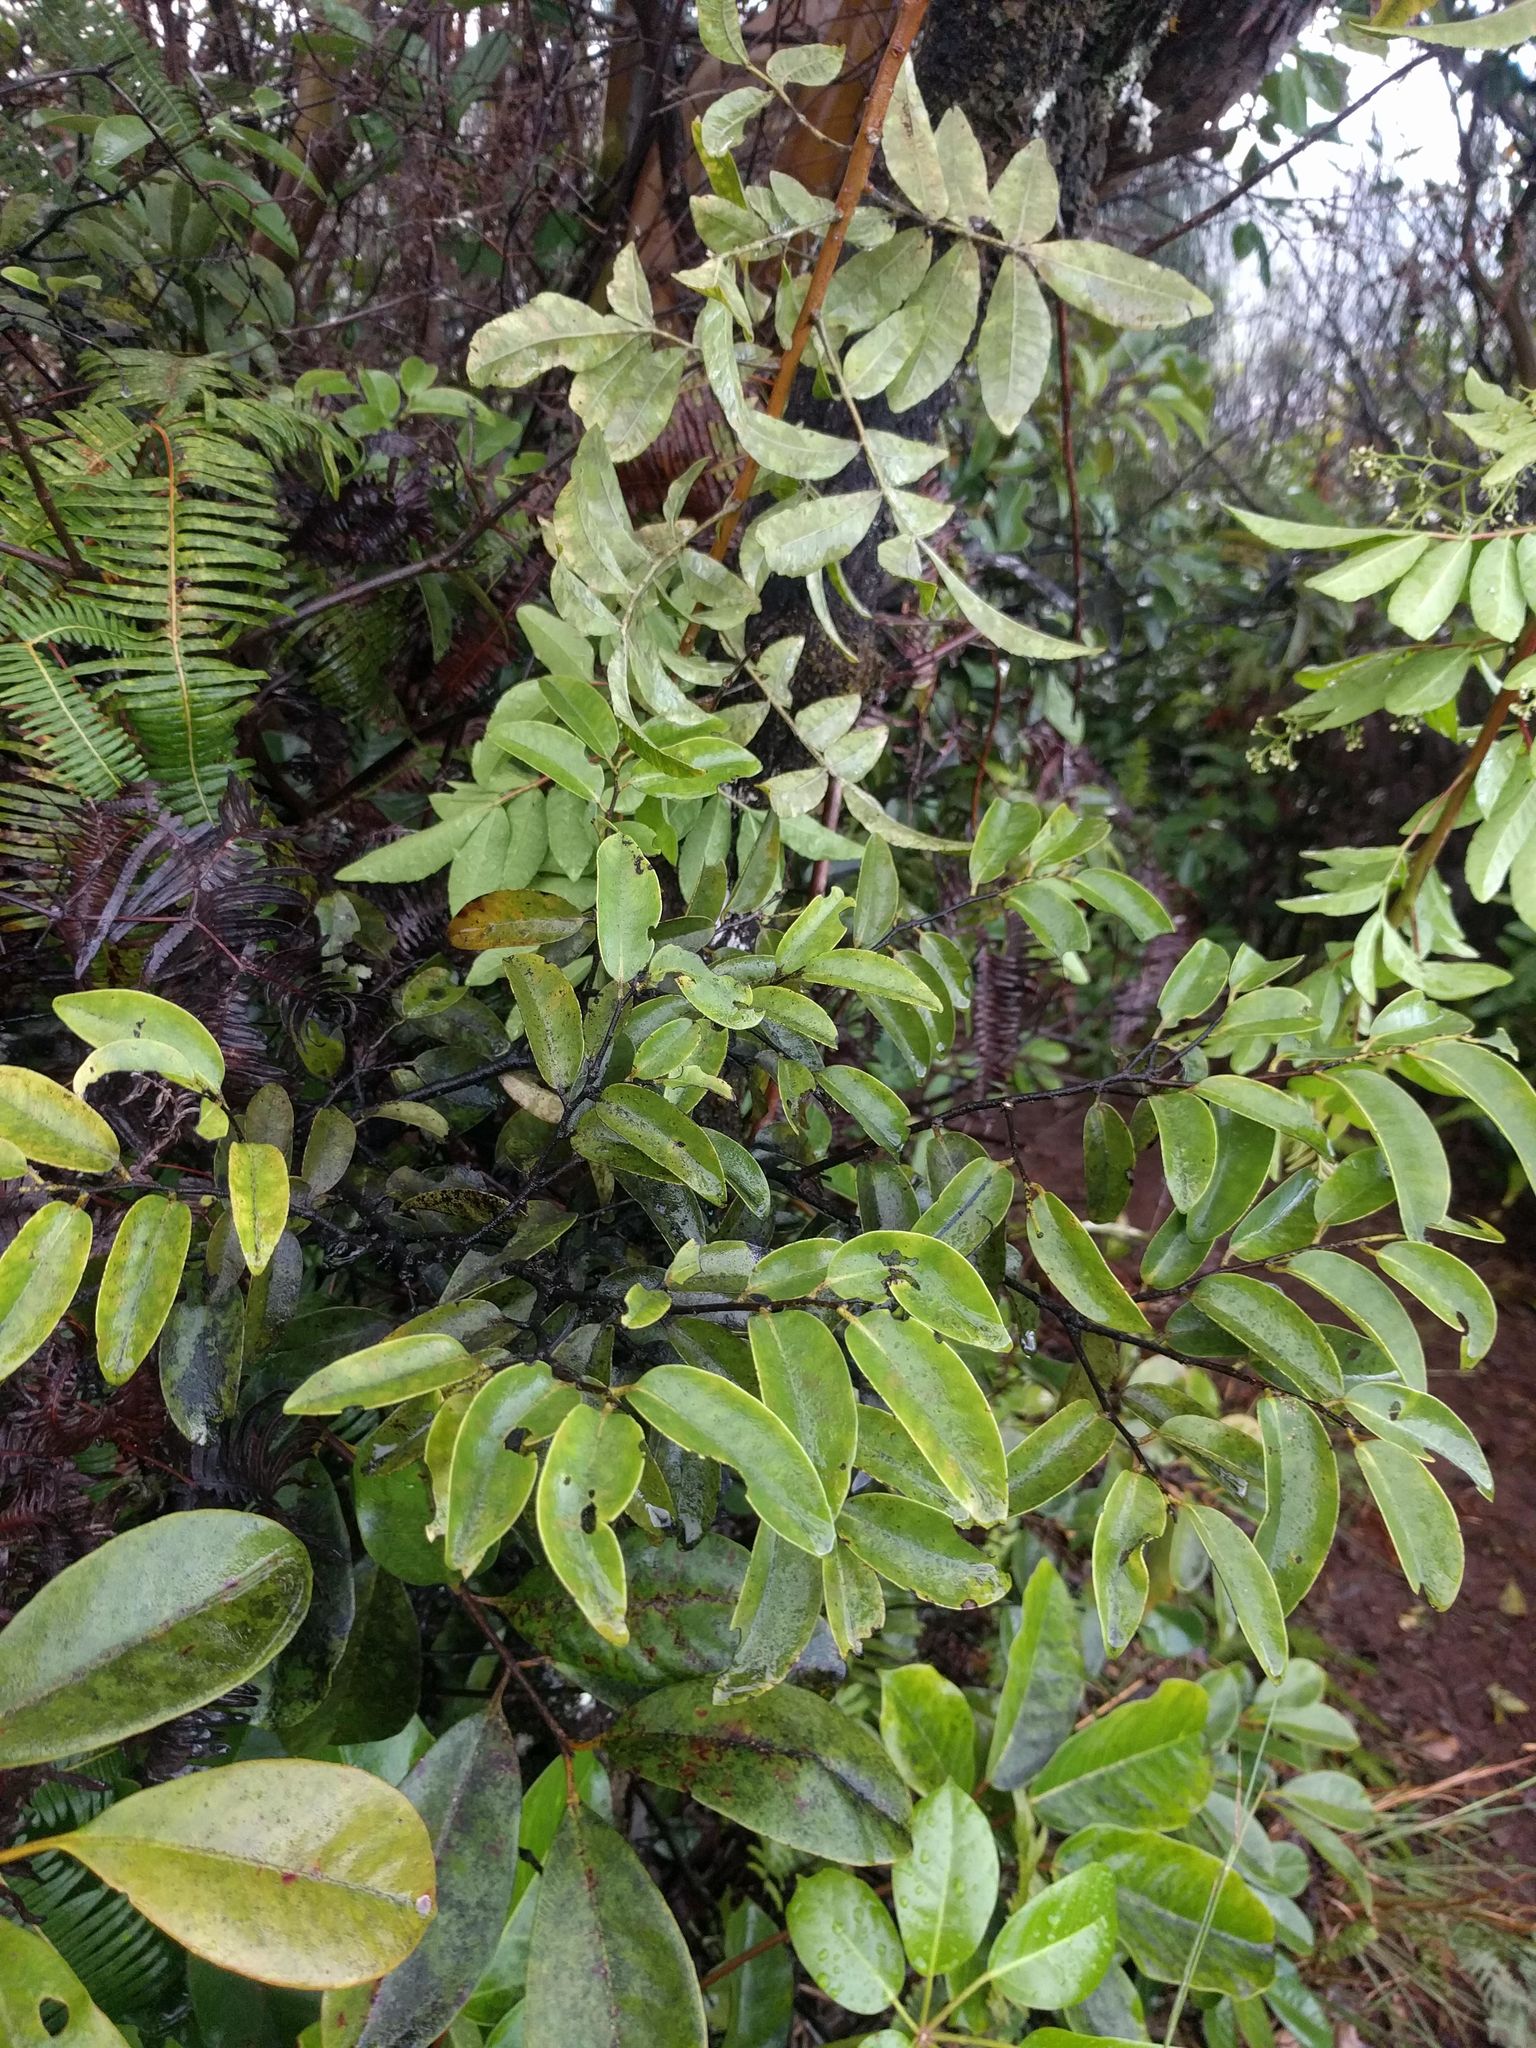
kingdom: Plantae
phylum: Tracheophyta
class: Magnoliopsida
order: Ericales
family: Ebenaceae
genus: Diospyros
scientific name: Diospyros sandwicensis
